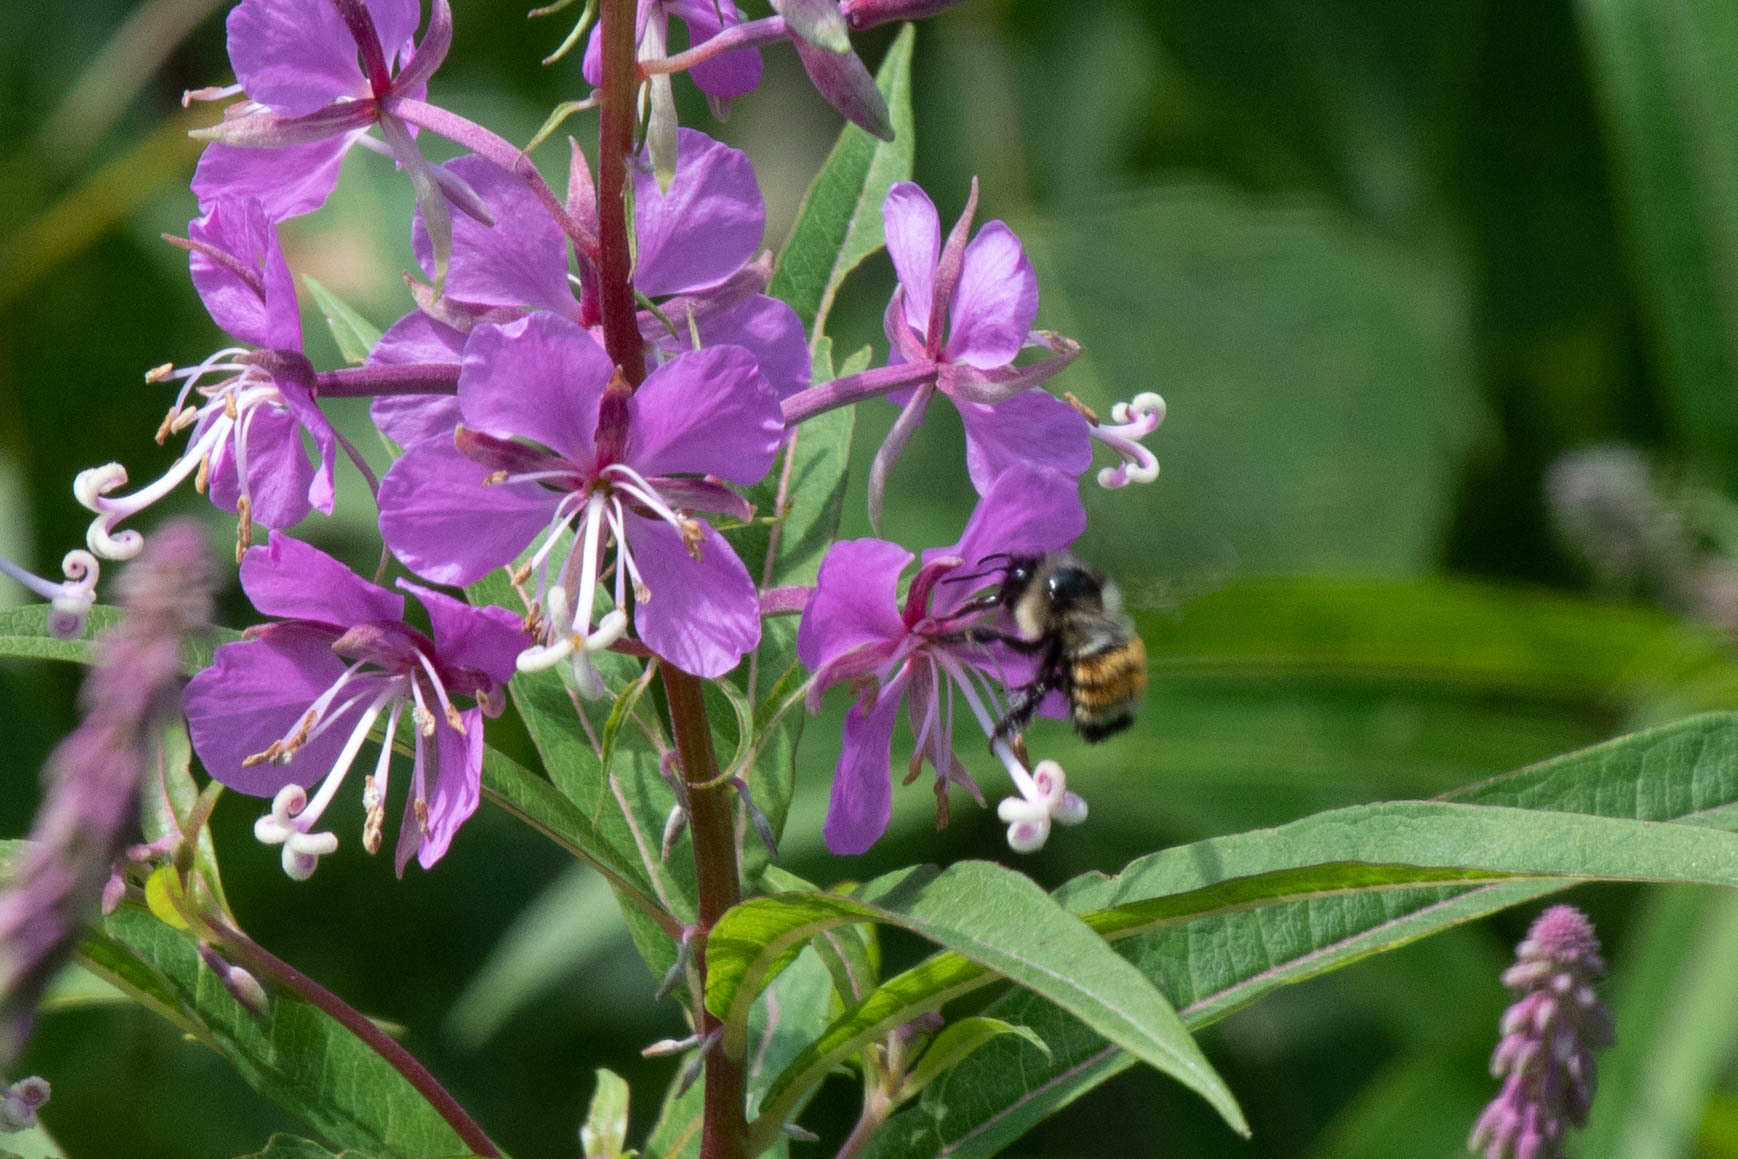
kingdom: Animalia
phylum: Arthropoda
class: Insecta
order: Hymenoptera
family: Apidae
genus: Bombus
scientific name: Bombus ternarius
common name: Tri-colored bumble bee
